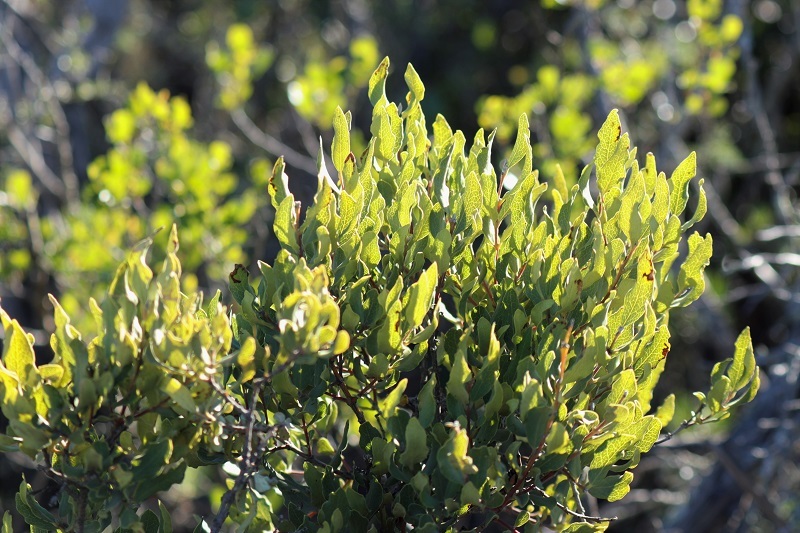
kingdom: Plantae
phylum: Tracheophyta
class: Magnoliopsida
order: Ericales
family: Ebenaceae
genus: Euclea
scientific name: Euclea crispa
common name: Blue guarri
